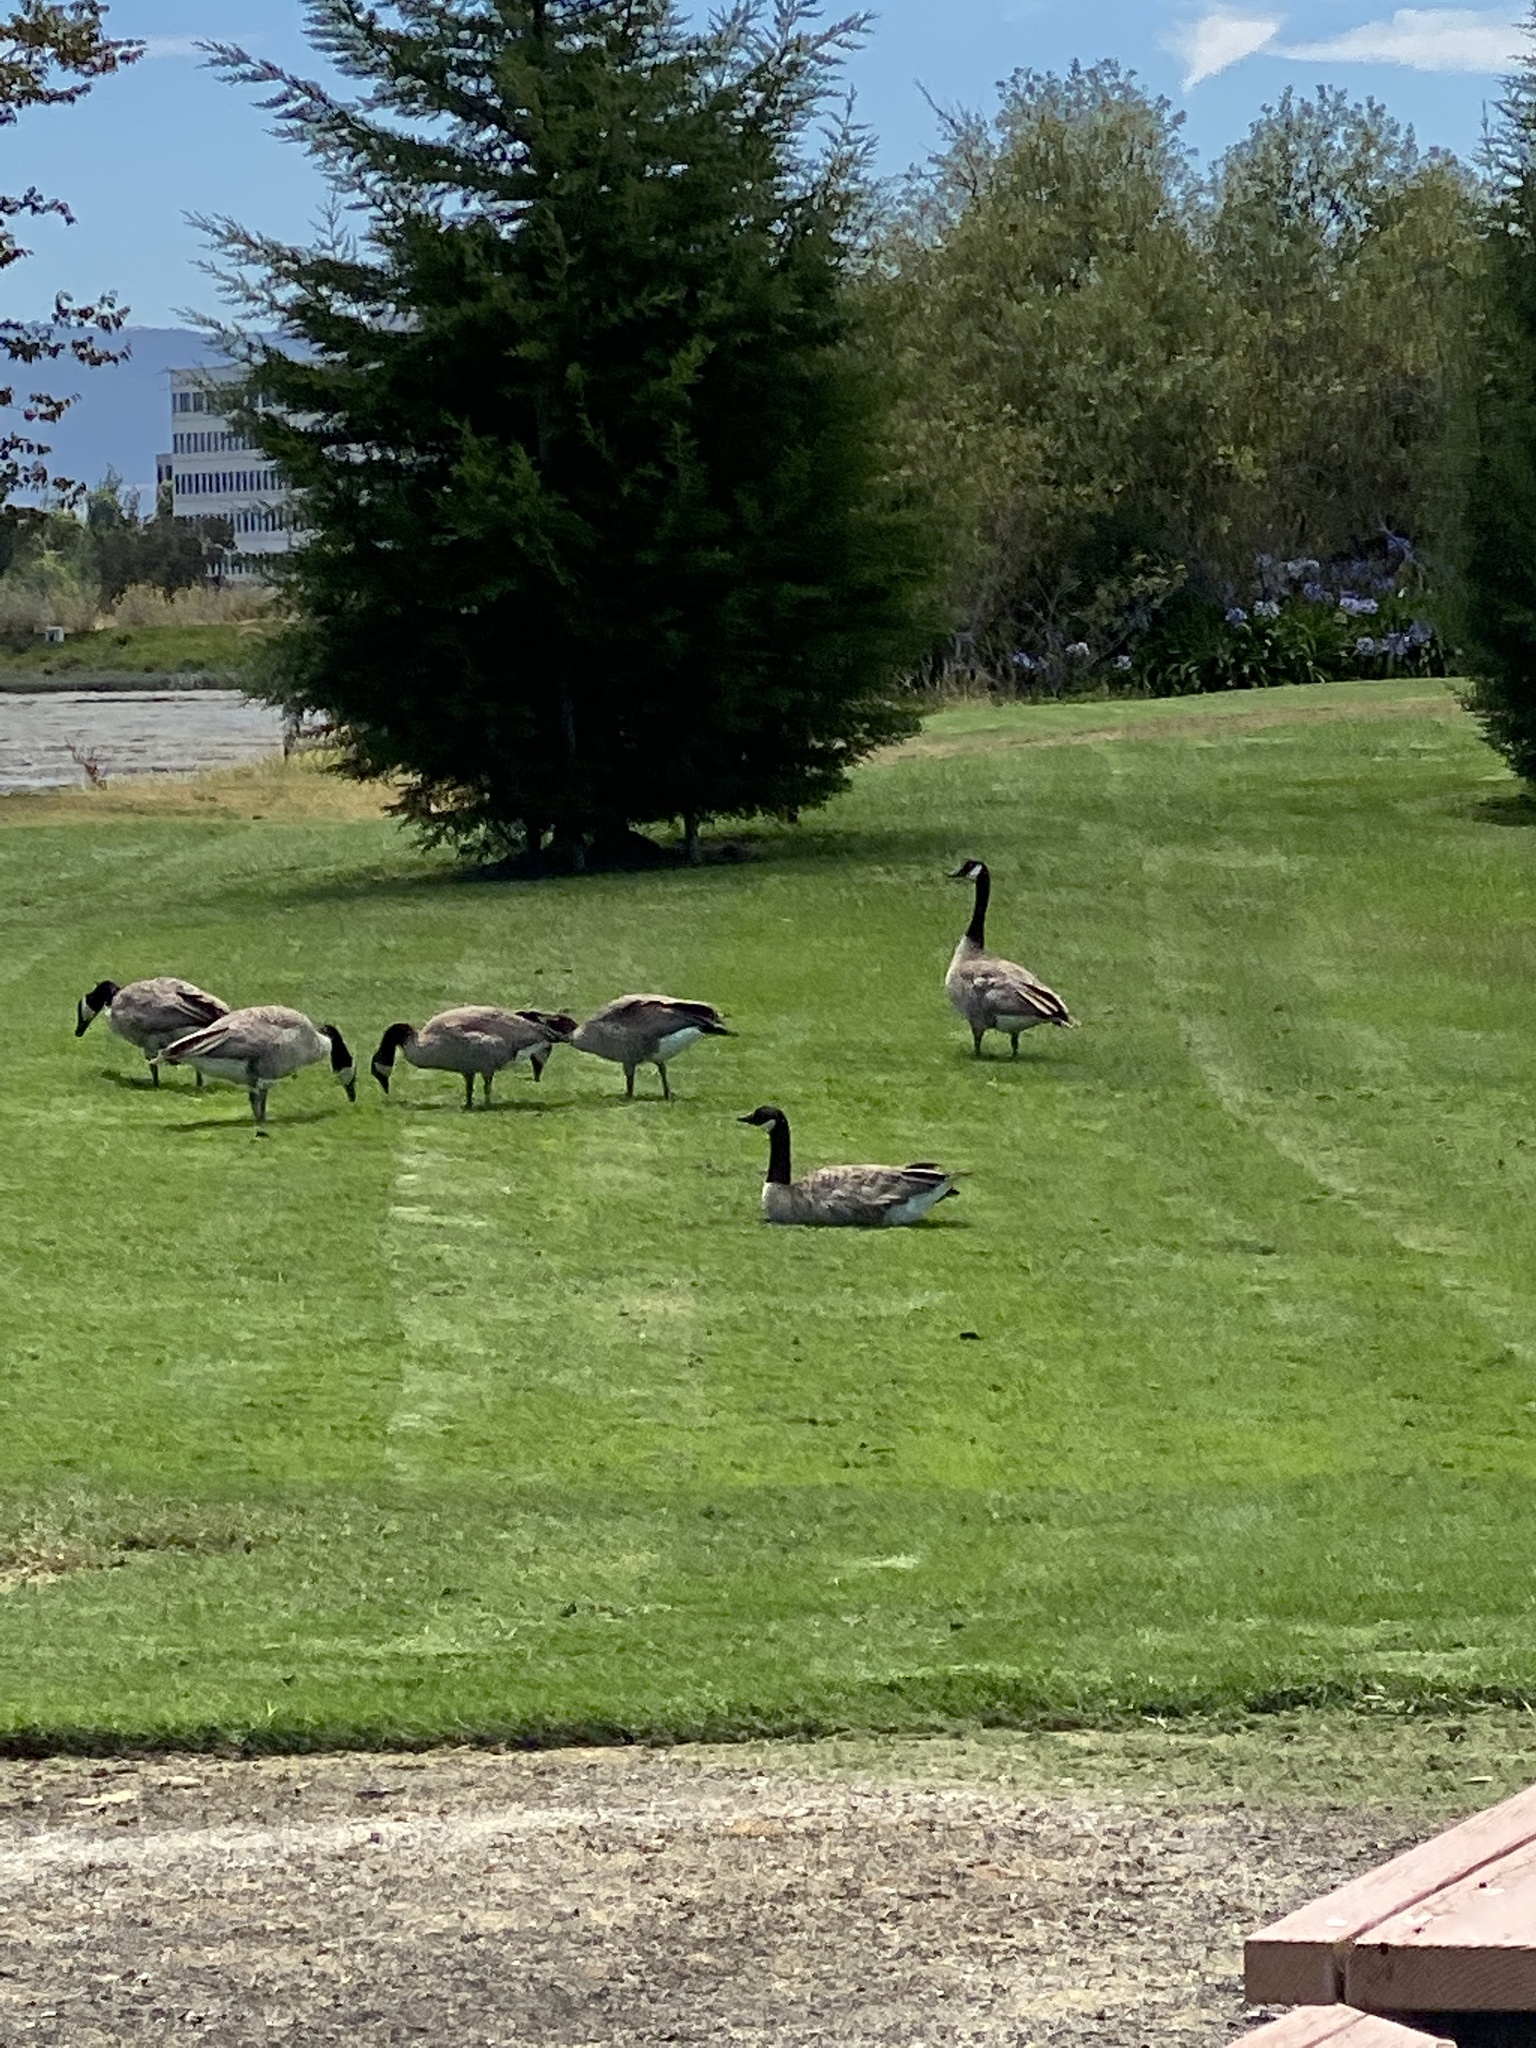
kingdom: Animalia
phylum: Chordata
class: Aves
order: Anseriformes
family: Anatidae
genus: Branta
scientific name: Branta canadensis
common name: Canada goose
